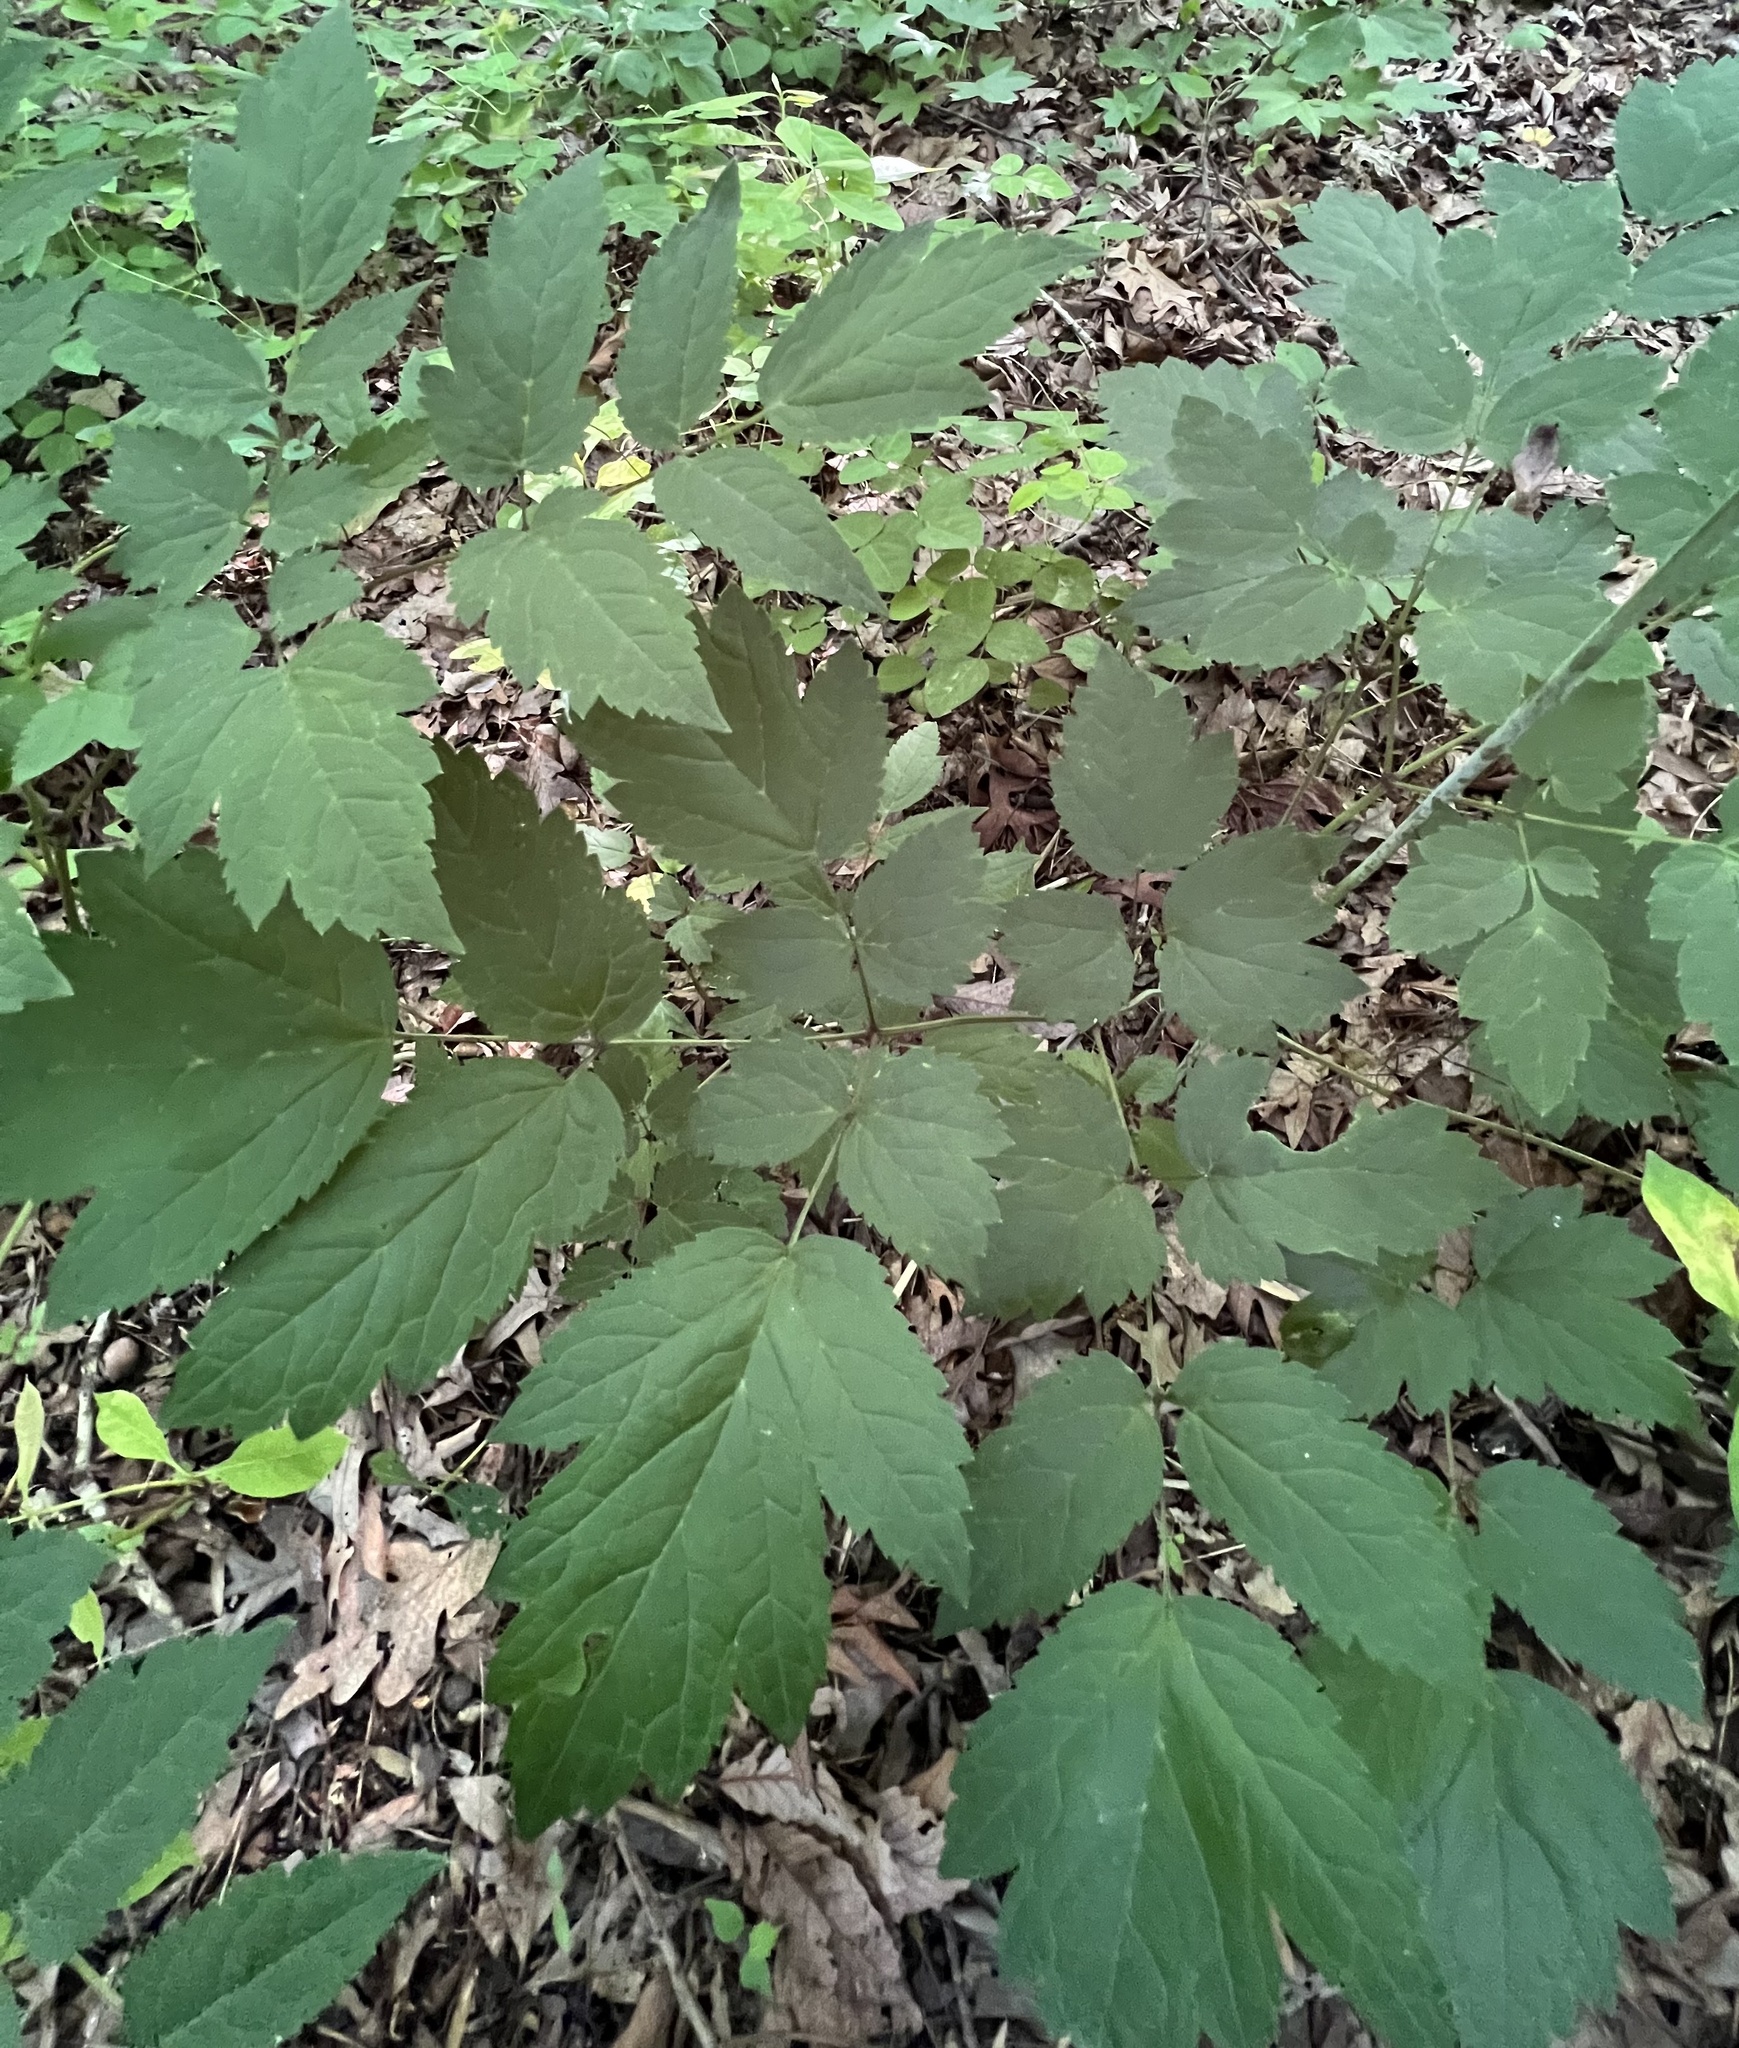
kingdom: Plantae
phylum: Tracheophyta
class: Magnoliopsida
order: Ranunculales
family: Ranunculaceae
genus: Actaea
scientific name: Actaea racemosa
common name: Black cohosh
